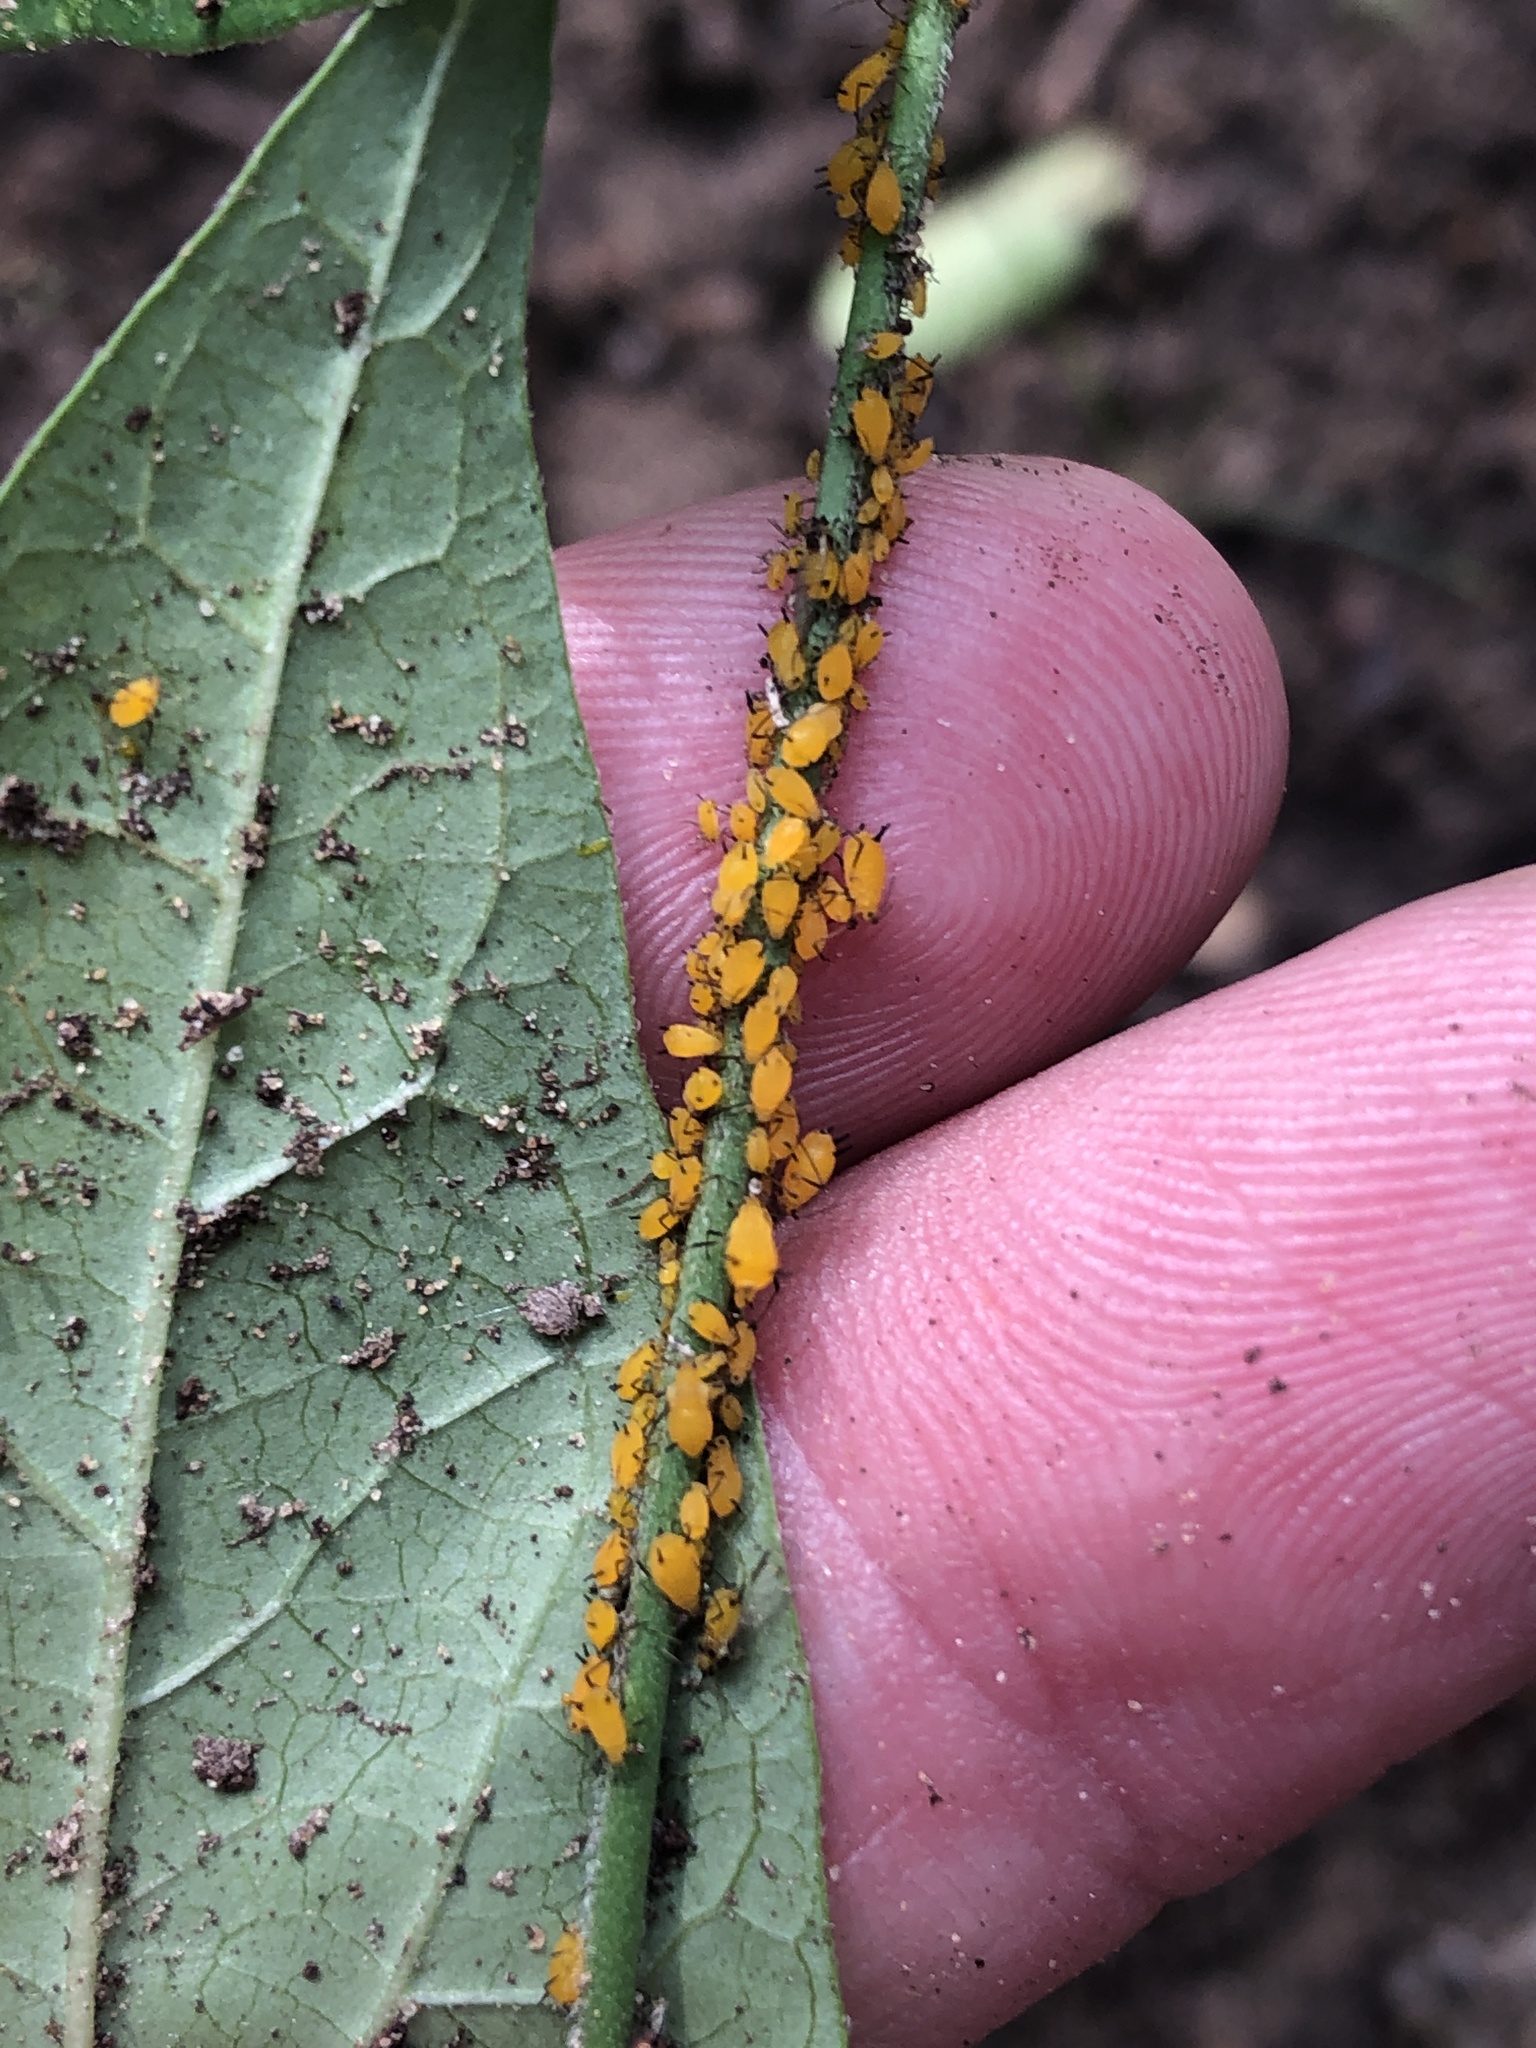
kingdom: Animalia
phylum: Arthropoda
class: Insecta
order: Hemiptera
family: Aphididae
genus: Aphis
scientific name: Aphis nerii
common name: Oleander aphid
